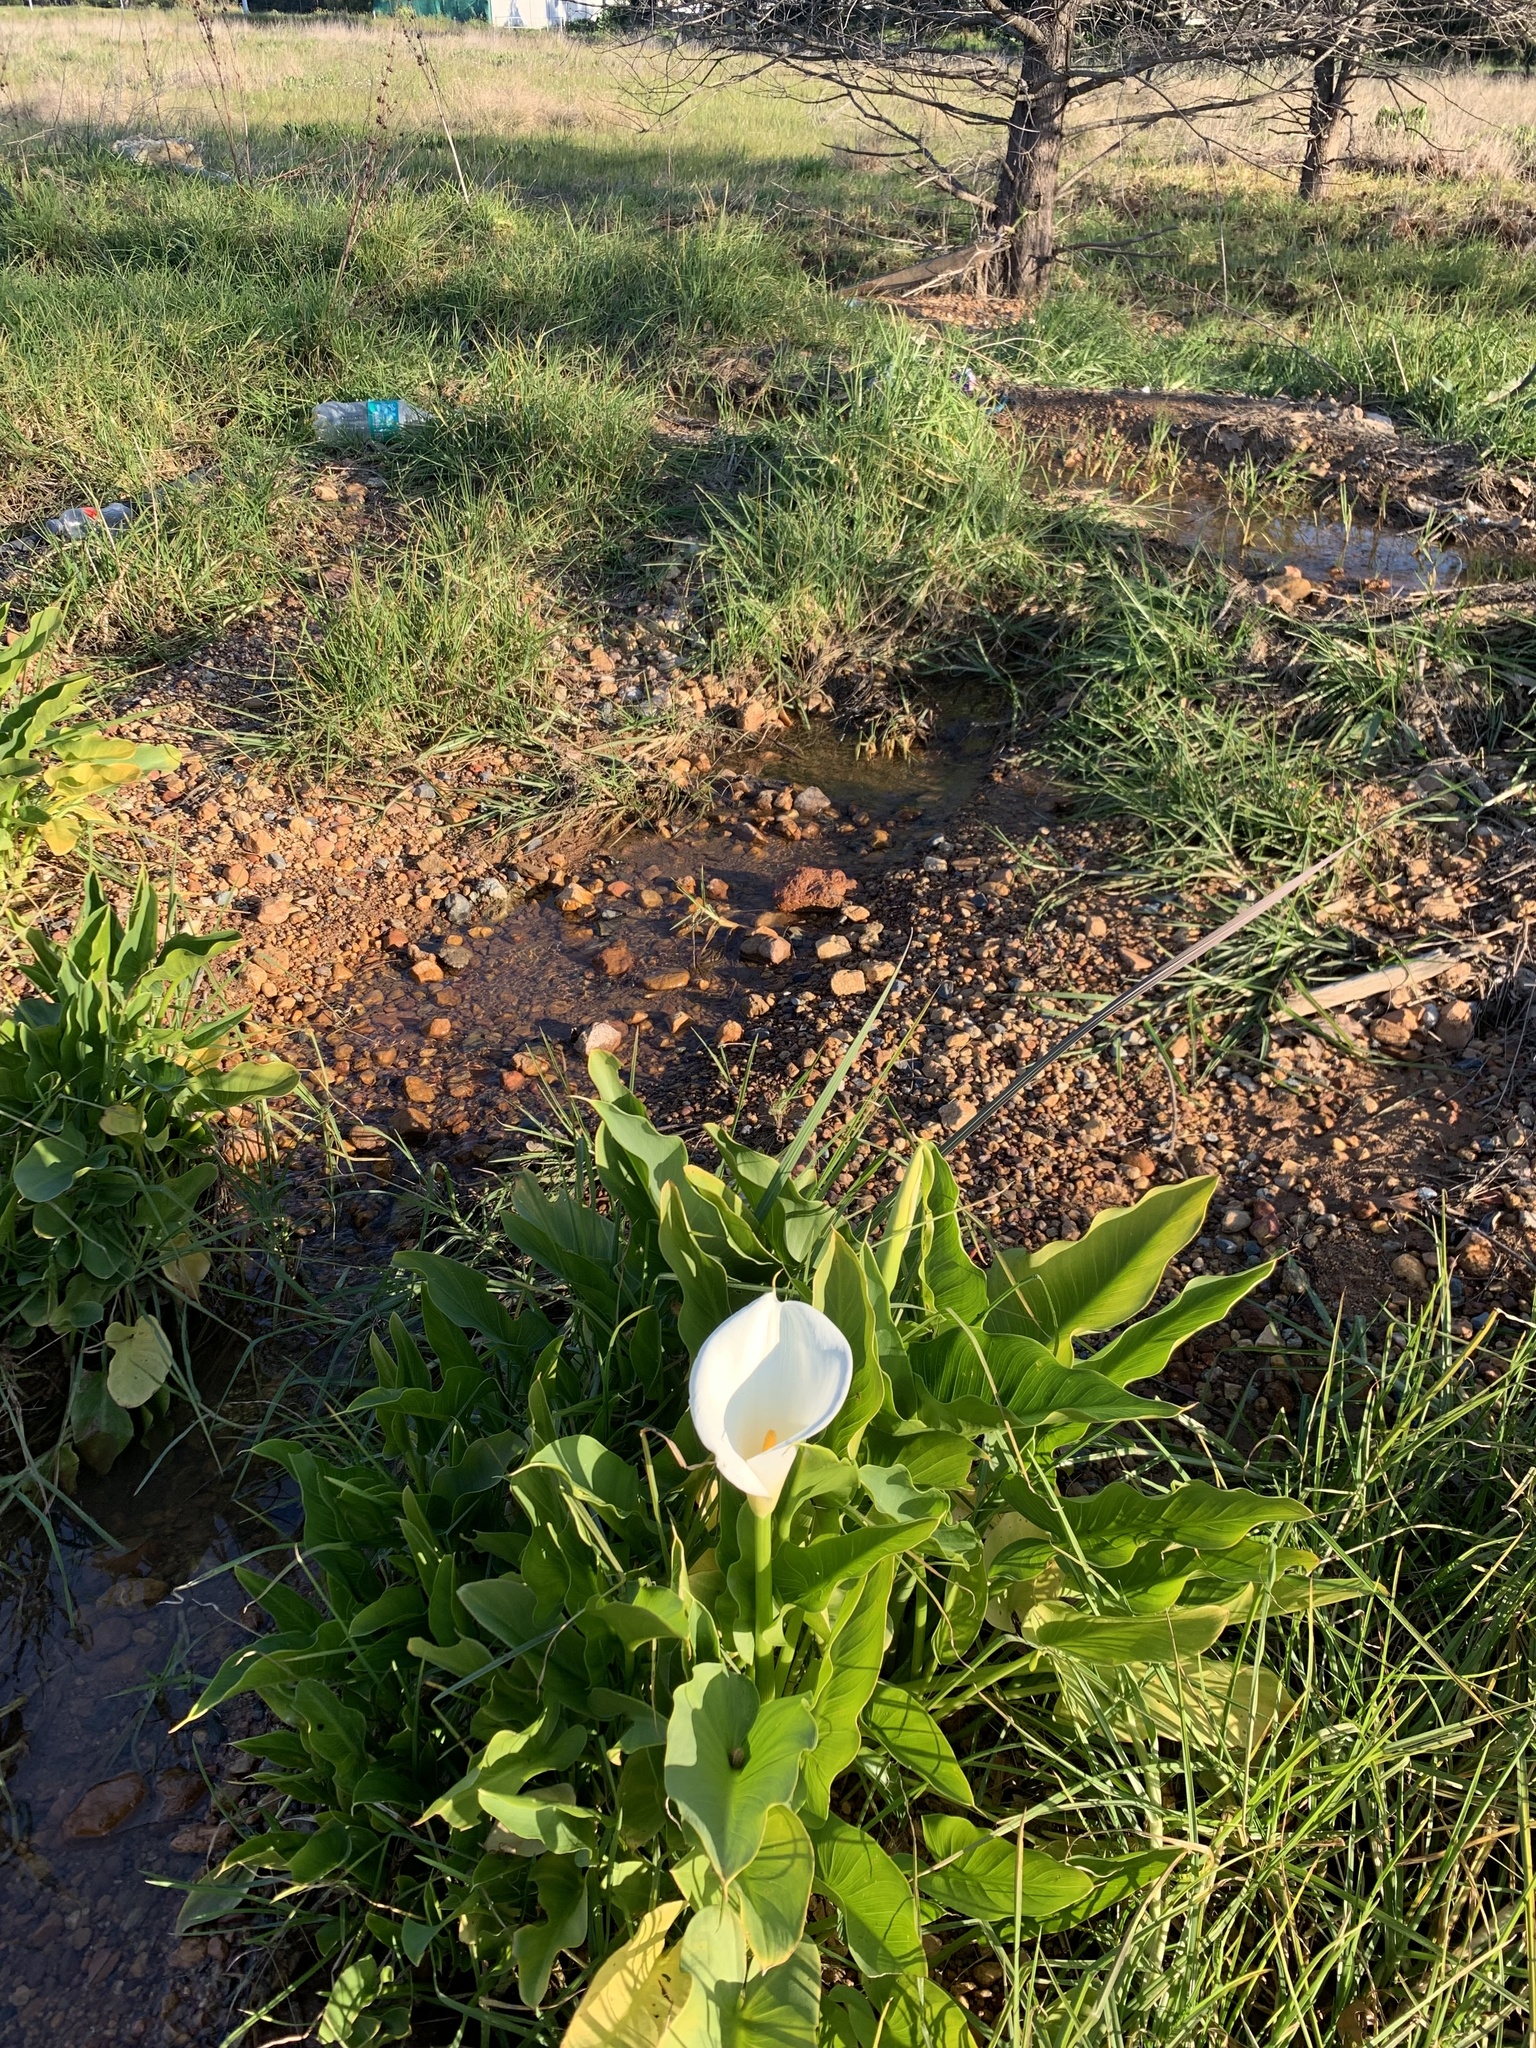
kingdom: Plantae
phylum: Tracheophyta
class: Liliopsida
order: Alismatales
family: Araceae
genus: Zantedeschia
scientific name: Zantedeschia aethiopica
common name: Altar-lily
